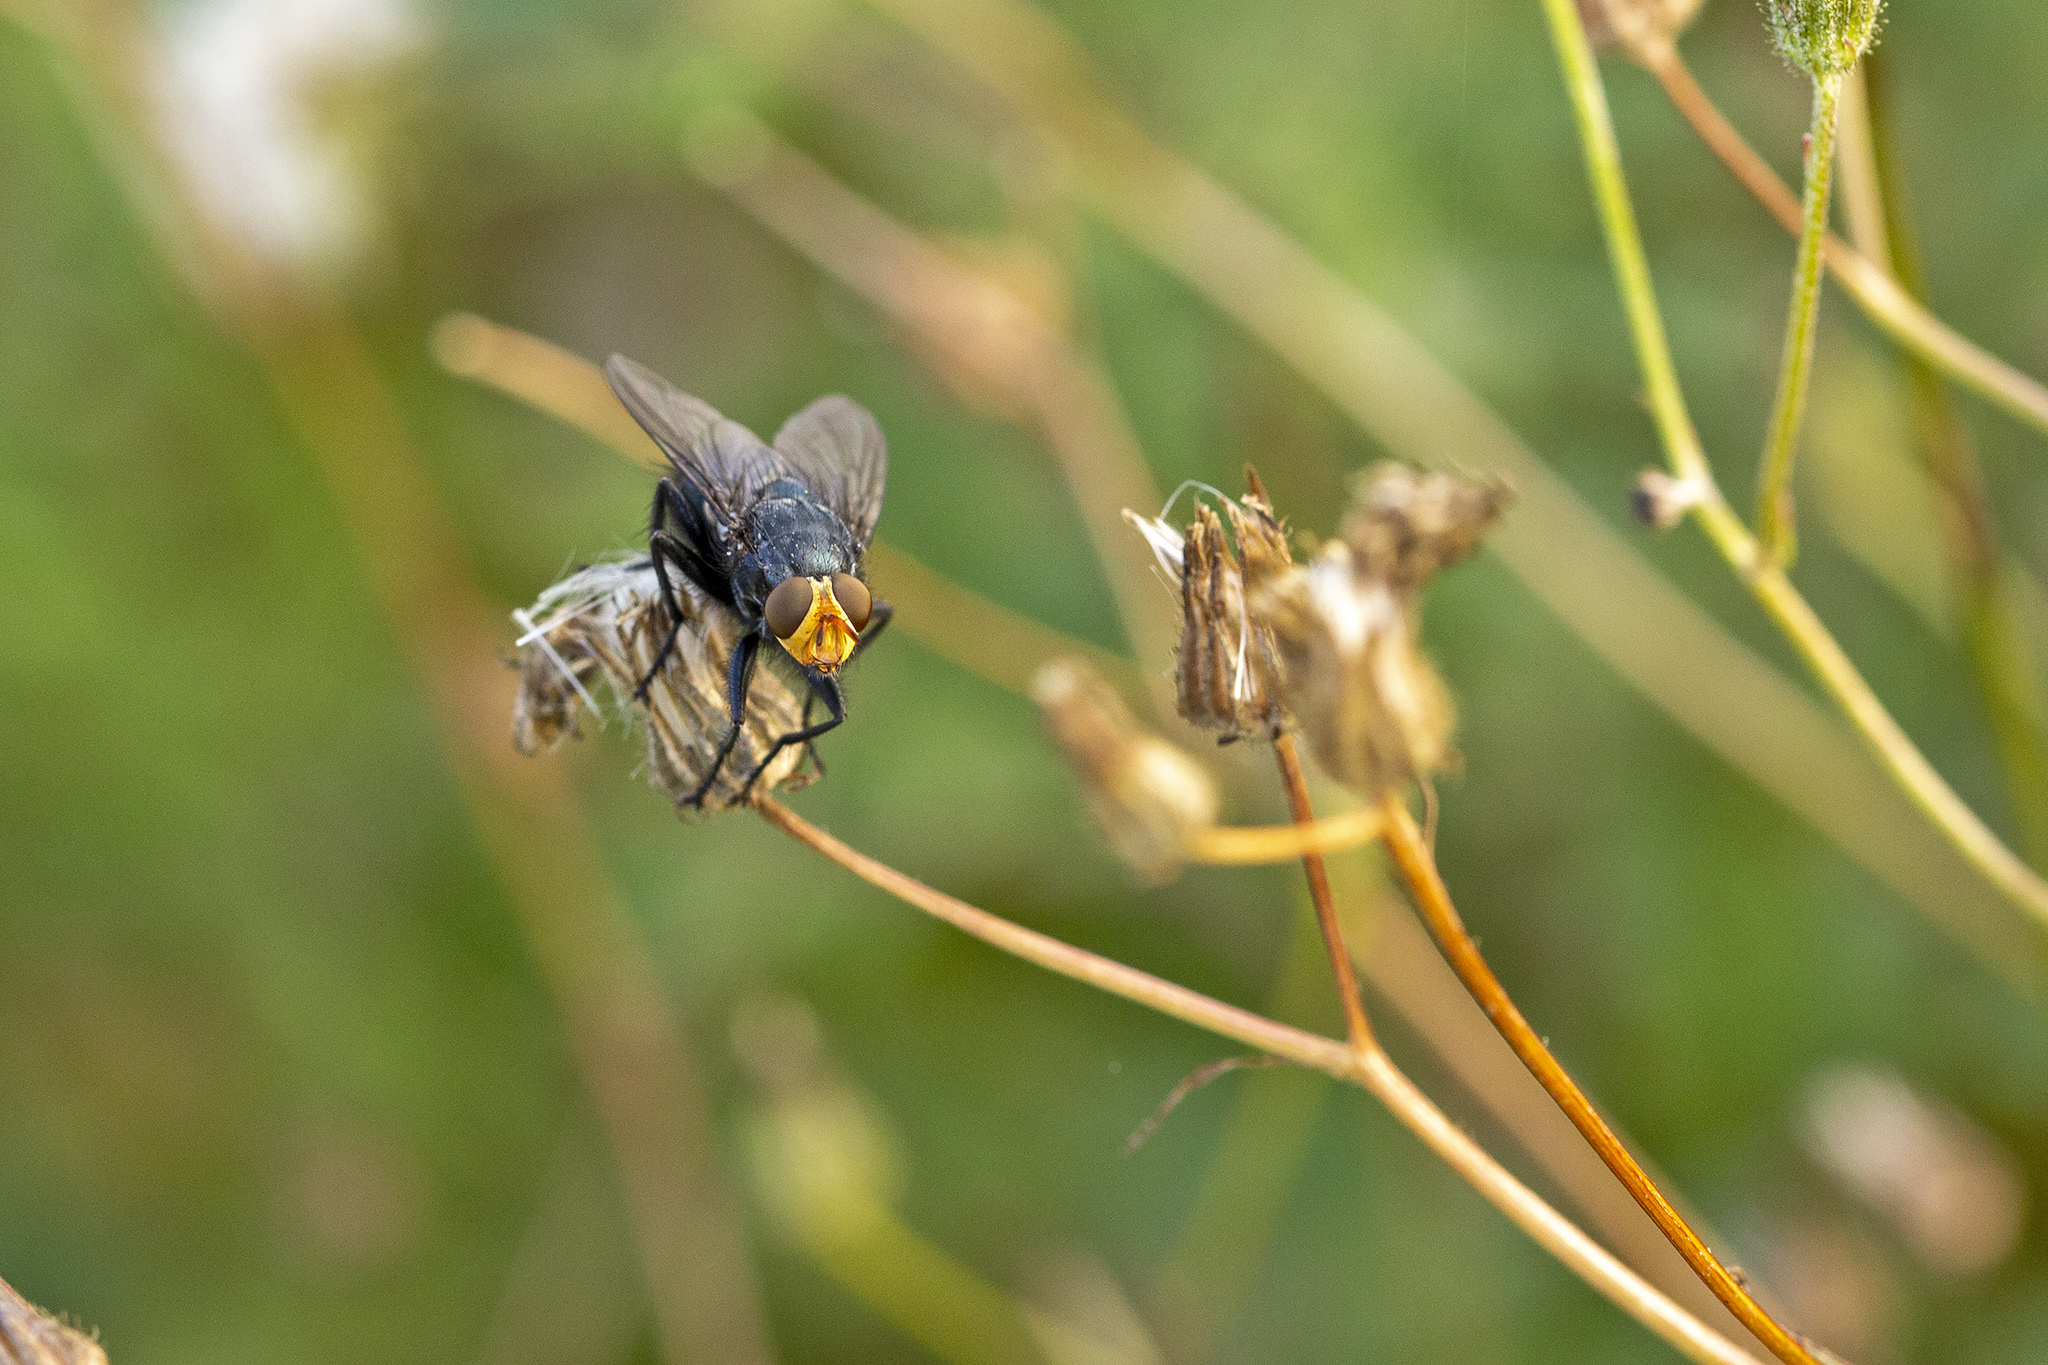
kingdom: Animalia
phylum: Arthropoda
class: Insecta
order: Diptera
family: Calliphoridae
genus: Cynomya
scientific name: Cynomya mortuorum
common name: Bluebottle blow fly
